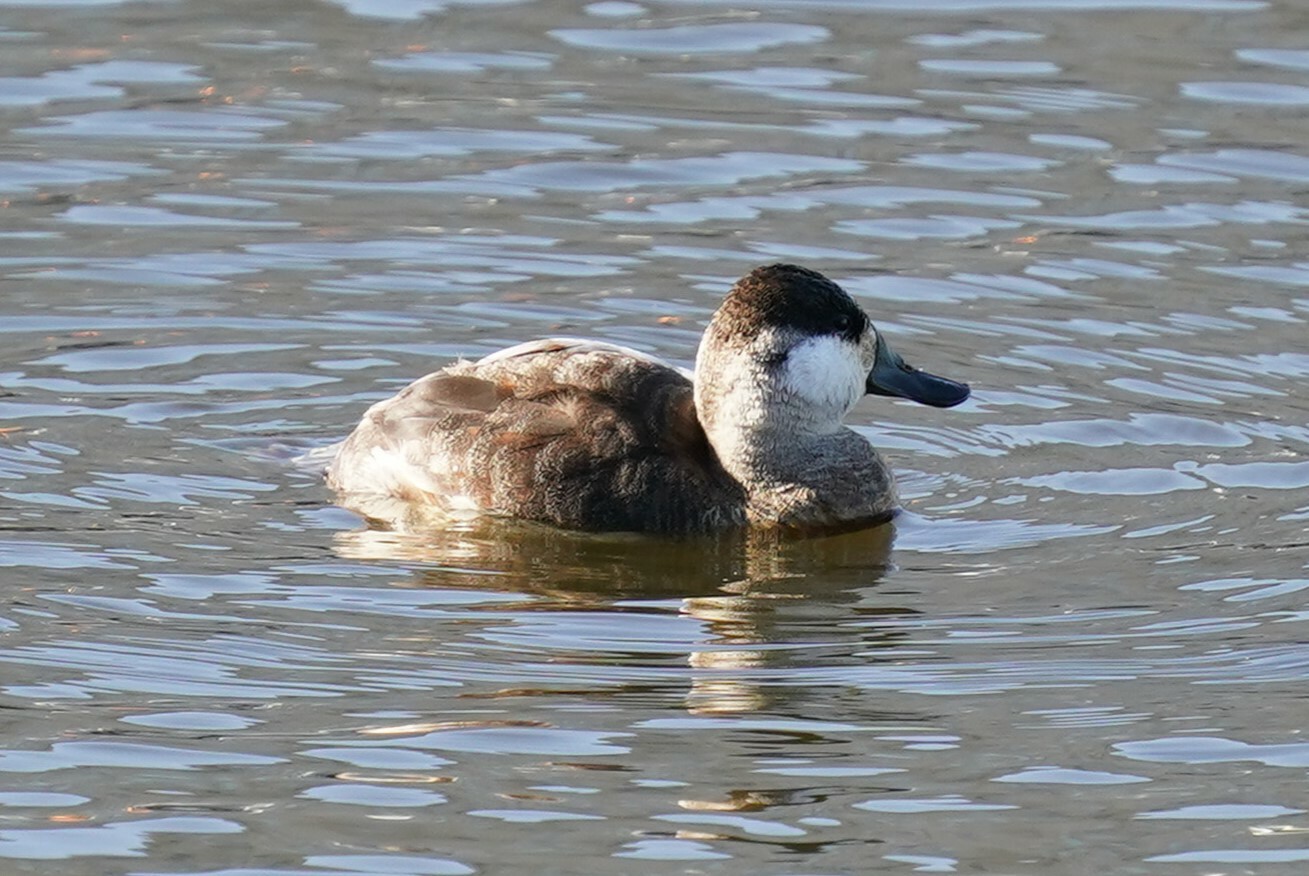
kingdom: Animalia
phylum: Chordata
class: Aves
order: Anseriformes
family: Anatidae
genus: Oxyura
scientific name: Oxyura jamaicensis
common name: Ruddy duck
